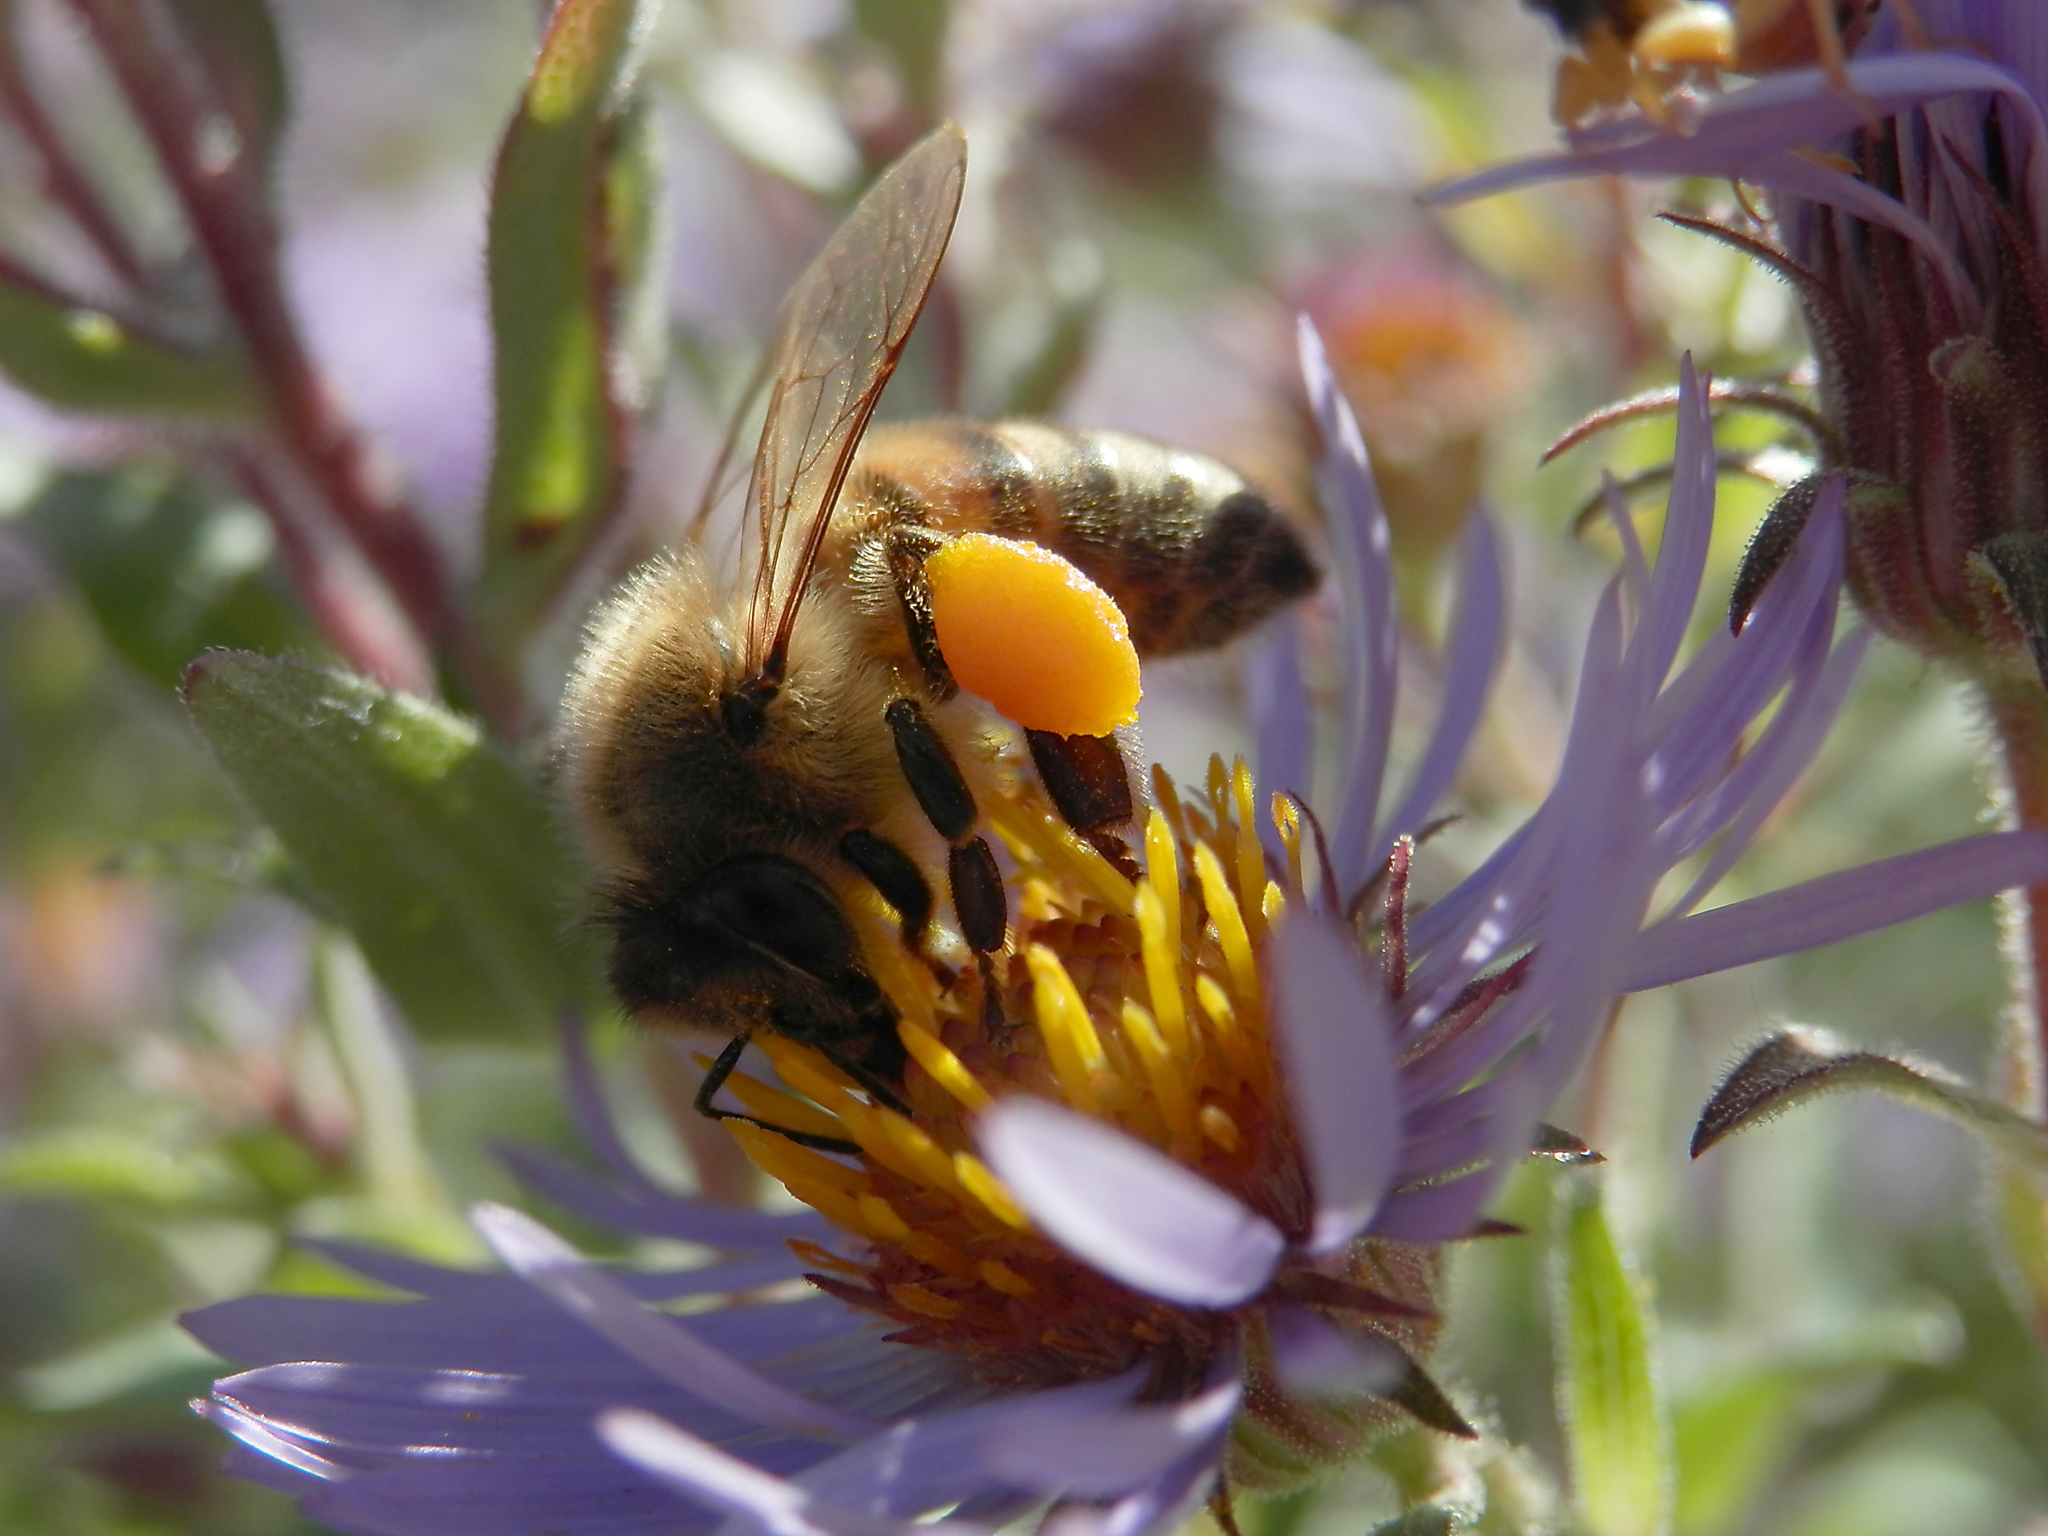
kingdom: Animalia
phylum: Arthropoda
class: Insecta
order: Hymenoptera
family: Apidae
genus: Apis
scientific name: Apis mellifera
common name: Honey bee
